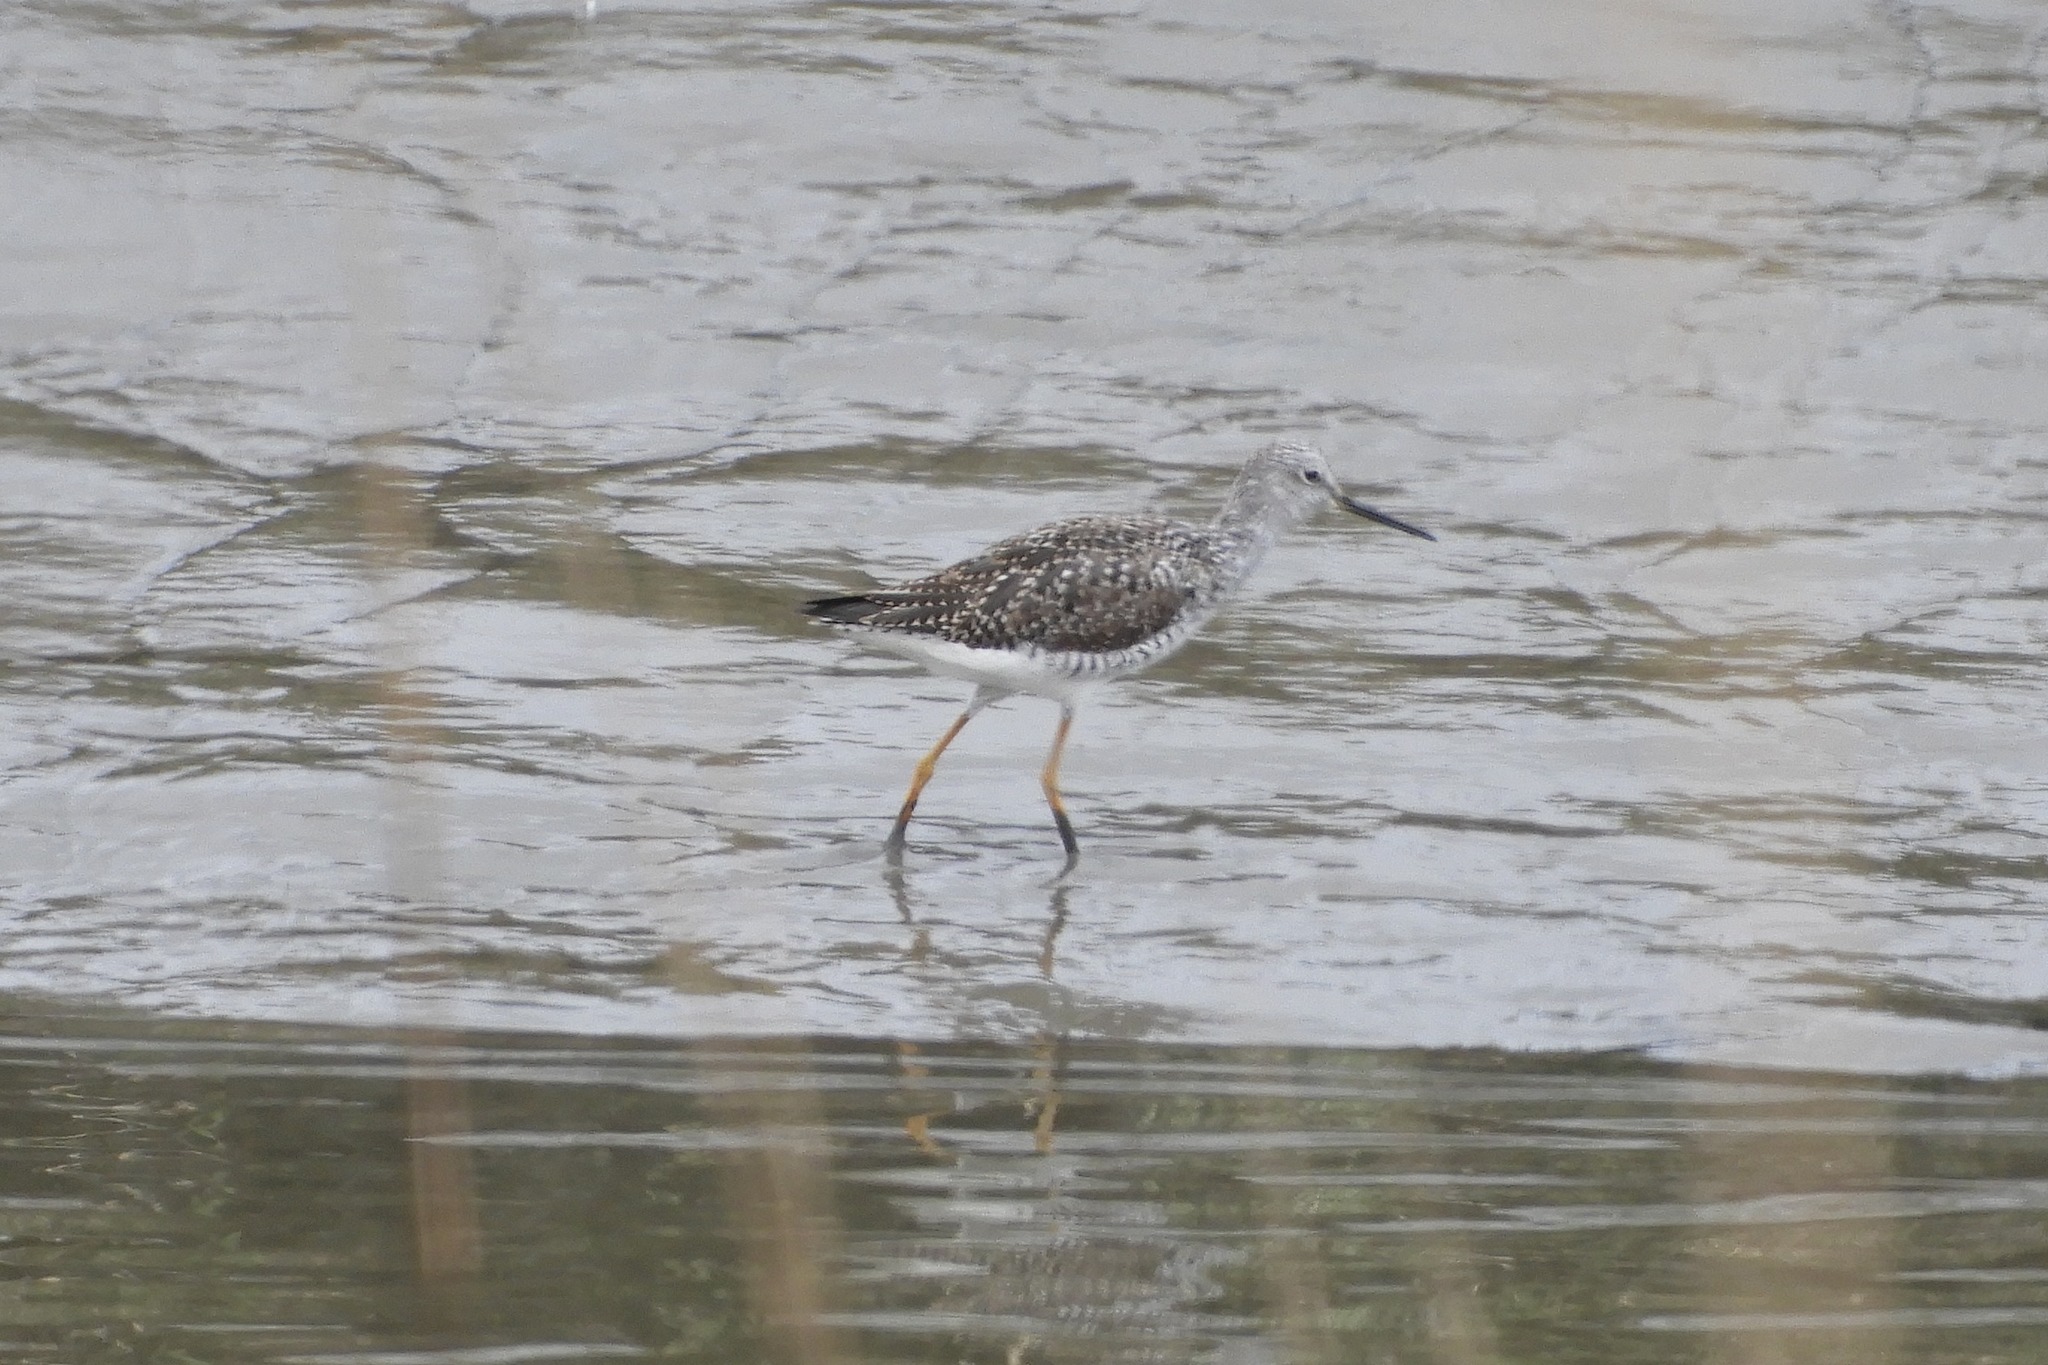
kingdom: Animalia
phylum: Chordata
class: Aves
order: Charadriiformes
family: Scolopacidae
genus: Tringa
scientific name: Tringa melanoleuca
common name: Greater yellowlegs
